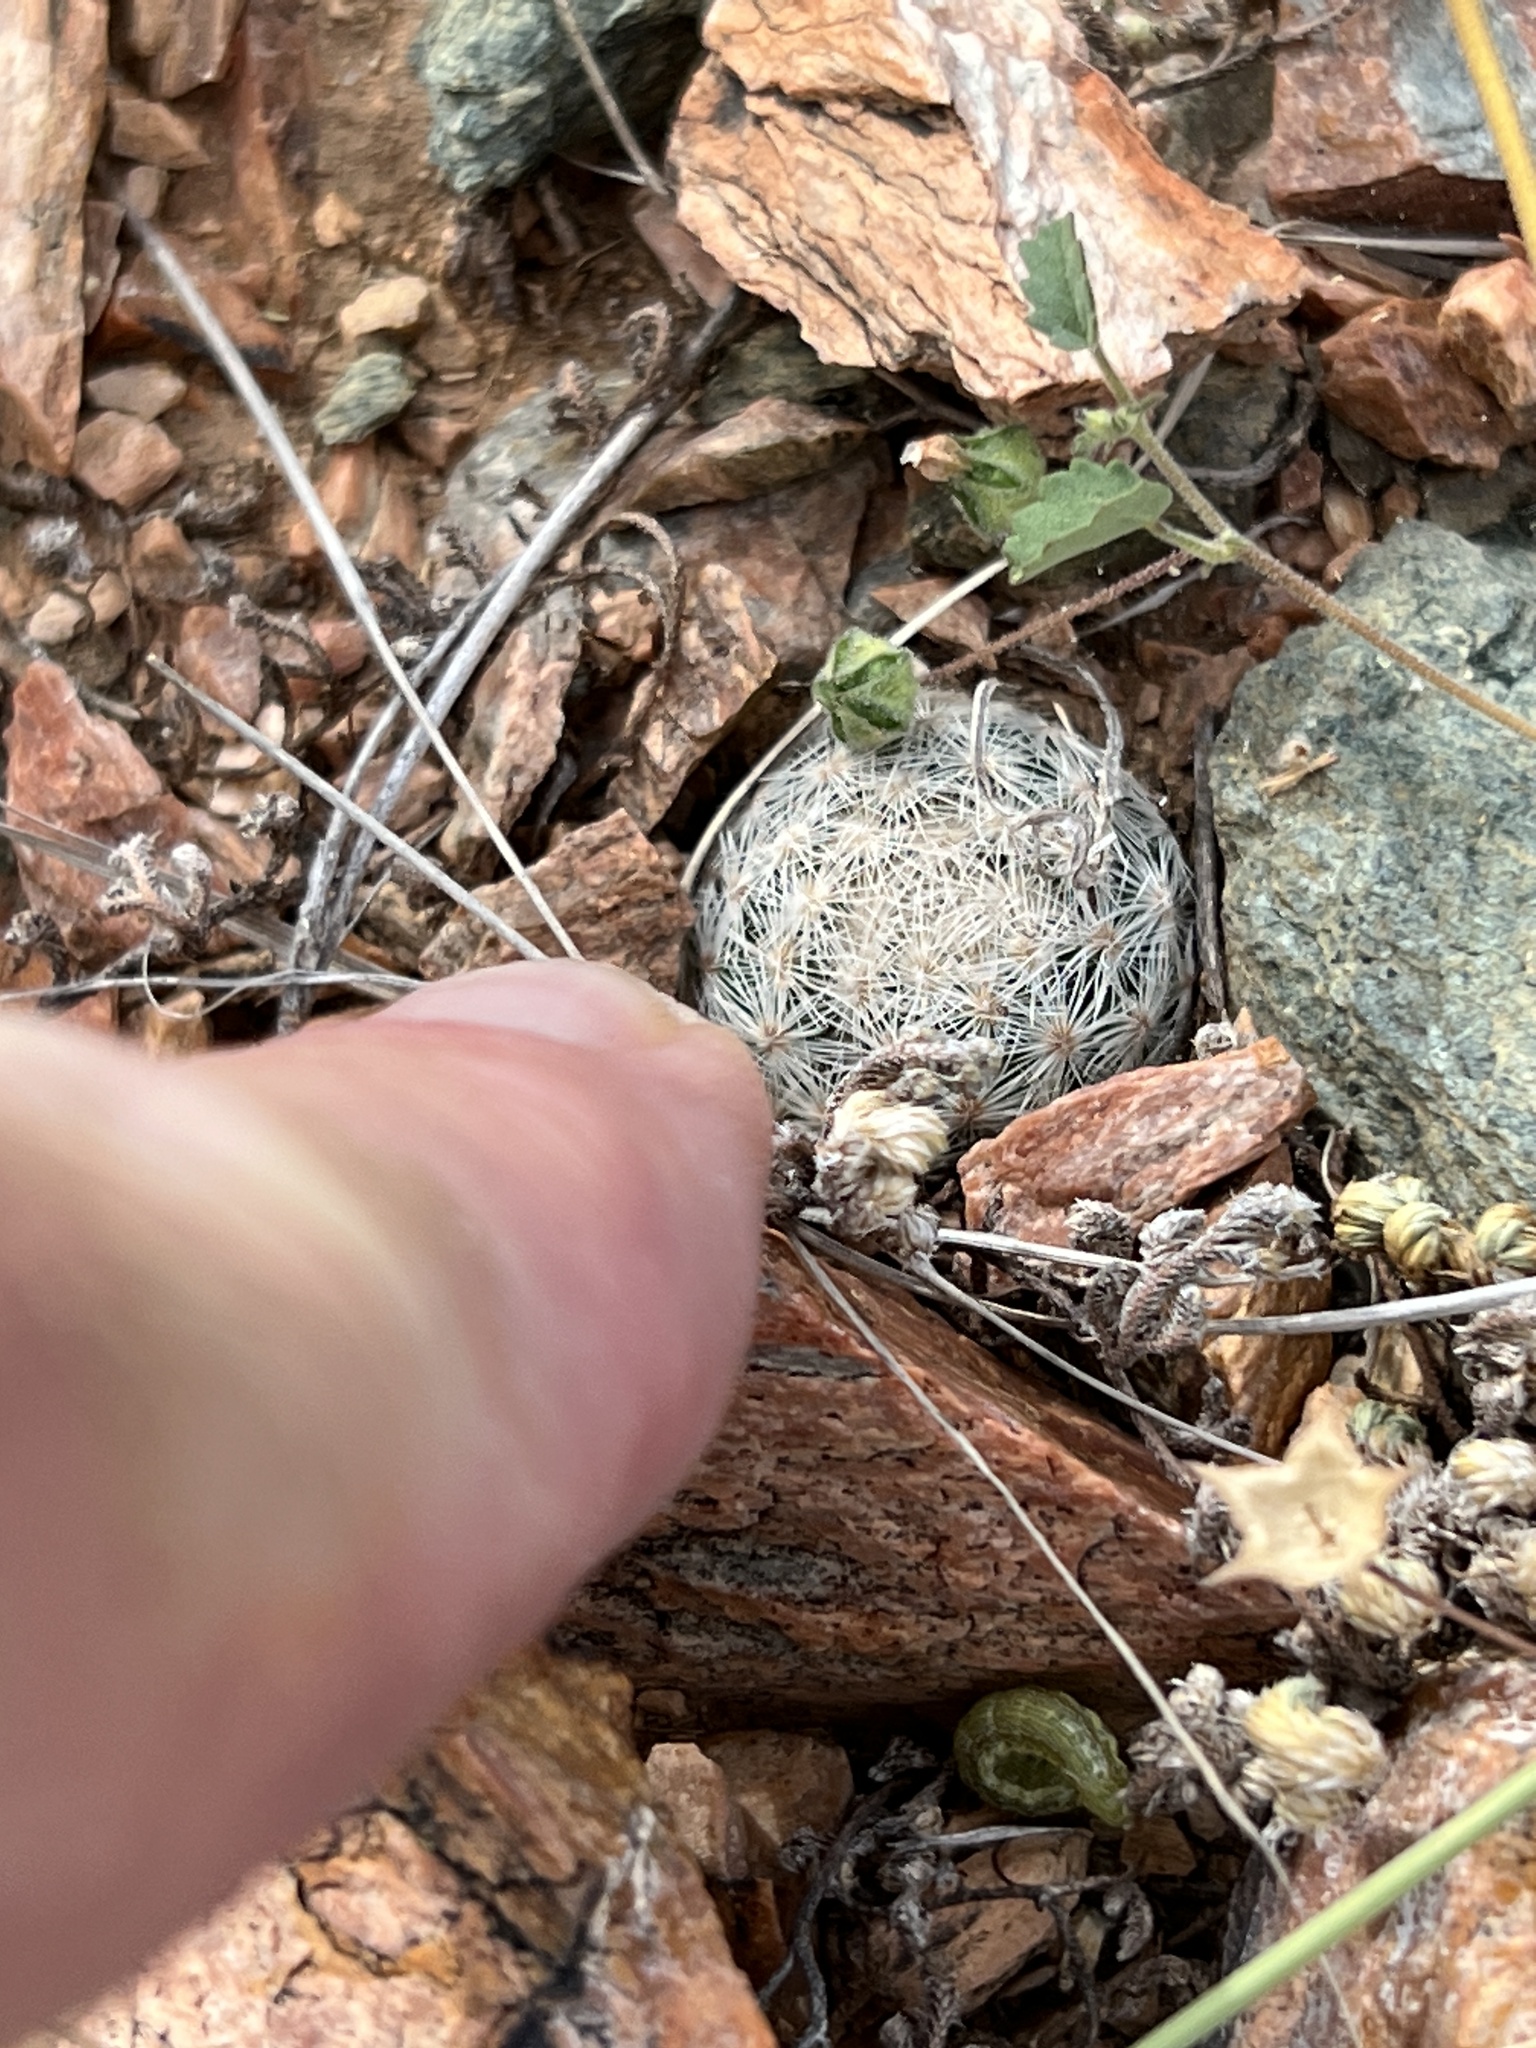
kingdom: Plantae
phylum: Tracheophyta
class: Magnoliopsida
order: Caryophyllales
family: Cactaceae
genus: Mammillaria
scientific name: Mammillaria lasiacantha
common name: Lace-spine nipple cactus
